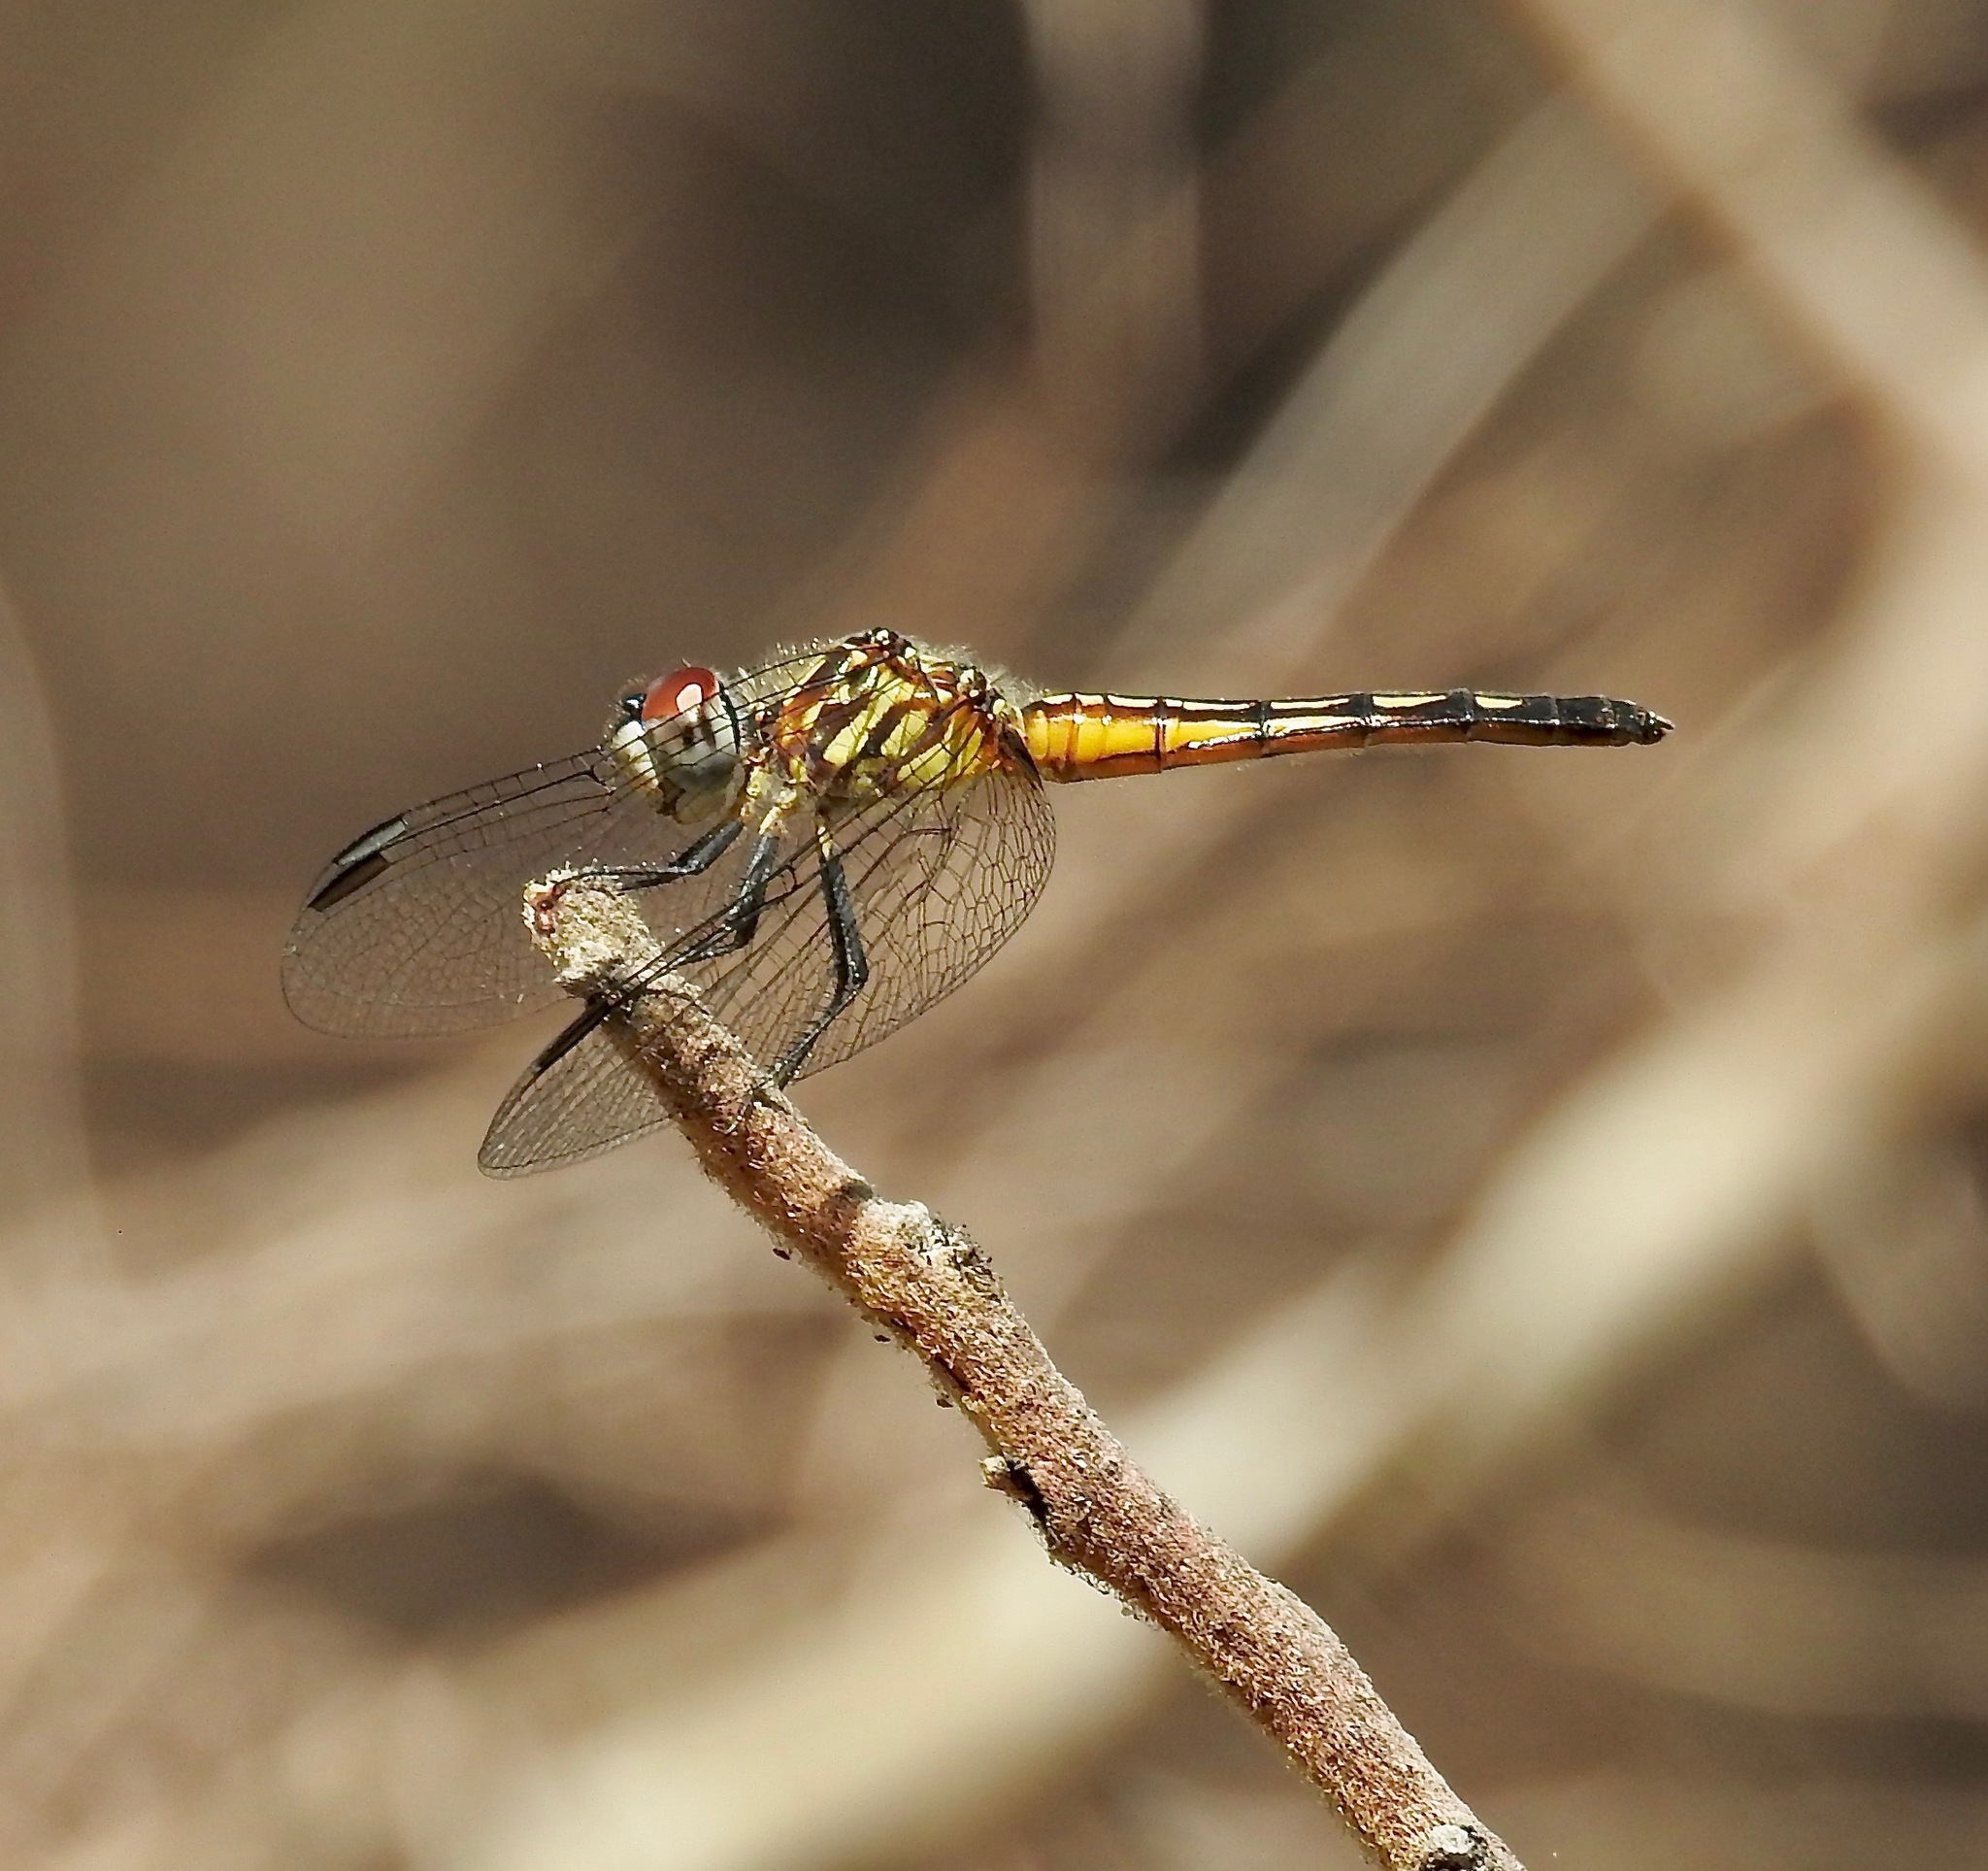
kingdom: Animalia
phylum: Arthropoda
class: Insecta
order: Odonata
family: Libellulidae
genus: Pachydiplax
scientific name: Pachydiplax longipennis
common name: Blue dasher
